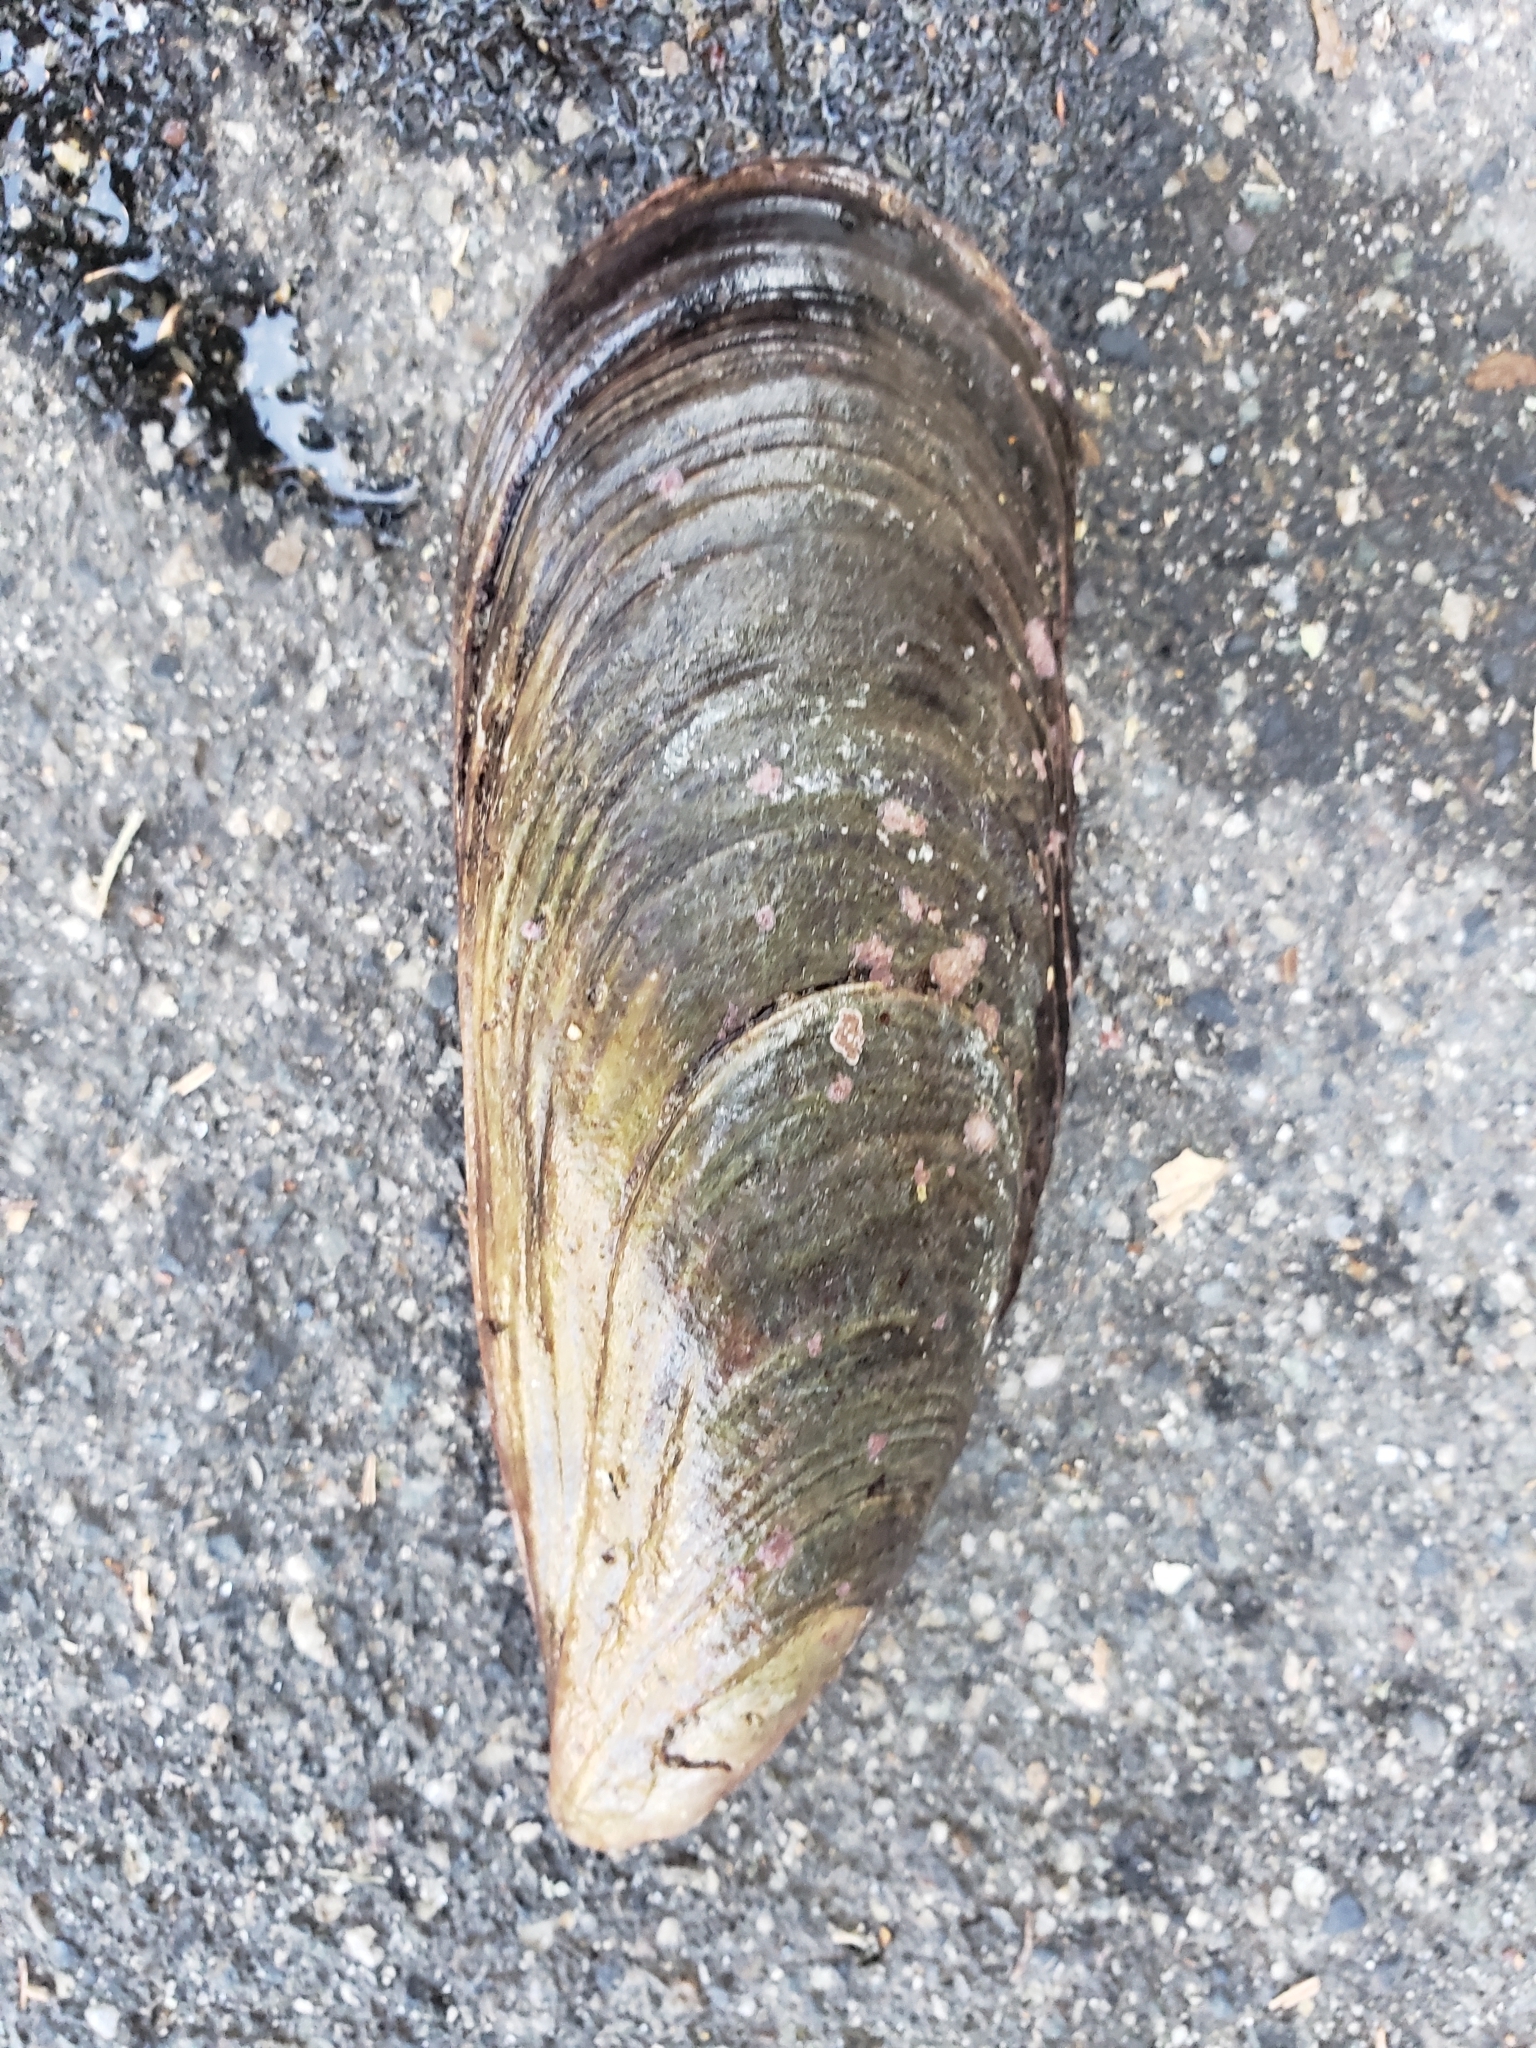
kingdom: Animalia
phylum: Mollusca
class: Bivalvia
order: Mytilida
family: Mytilidae
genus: Mytilus
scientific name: Mytilus californianus
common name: California mussel
